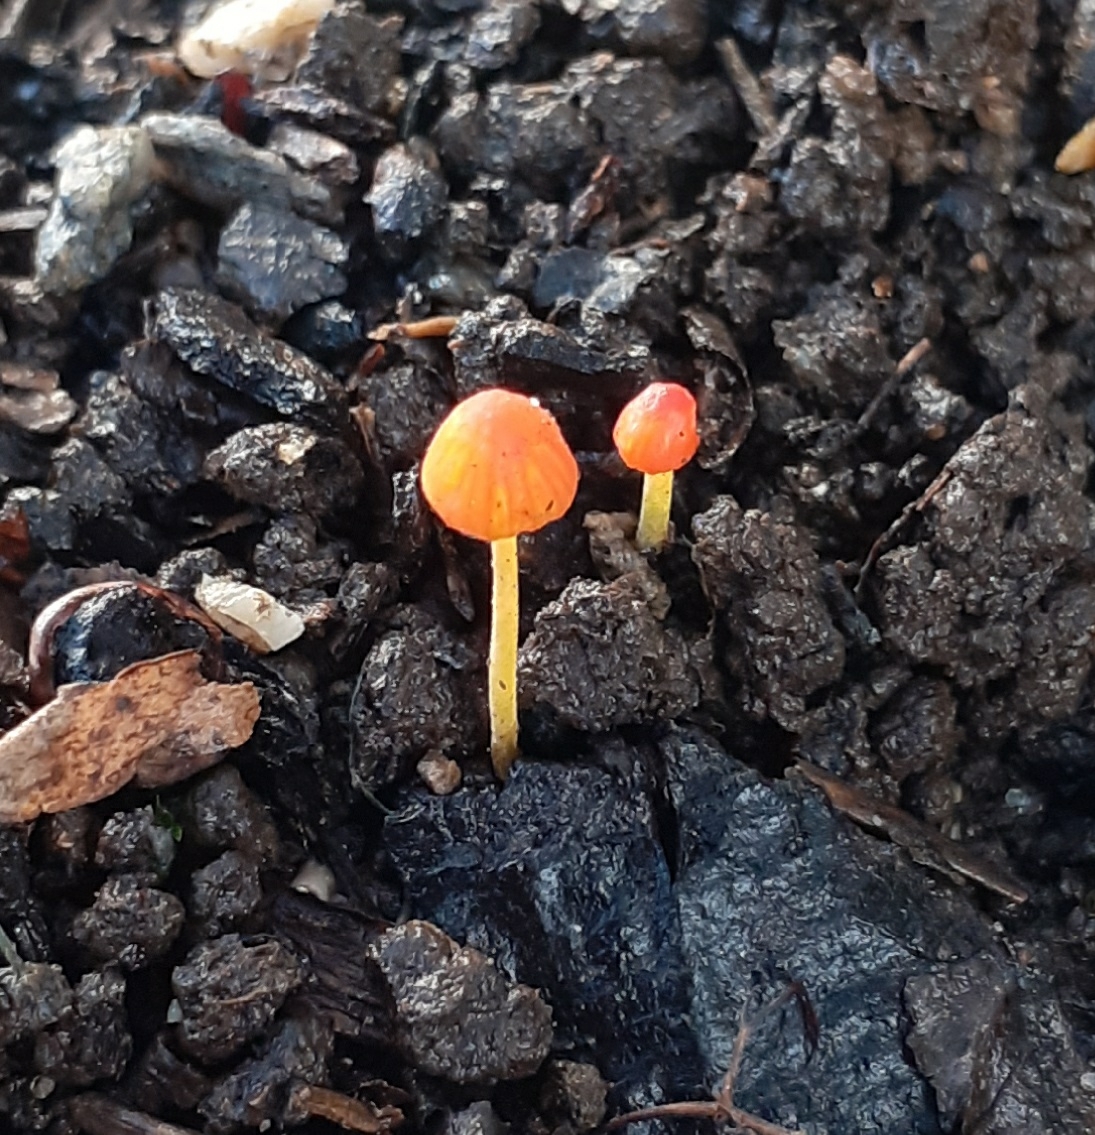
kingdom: Fungi
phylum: Basidiomycota
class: Agaricomycetes
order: Agaricales
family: Mycenaceae
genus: Mycena
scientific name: Mycena acicula
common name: Orange bonnet
